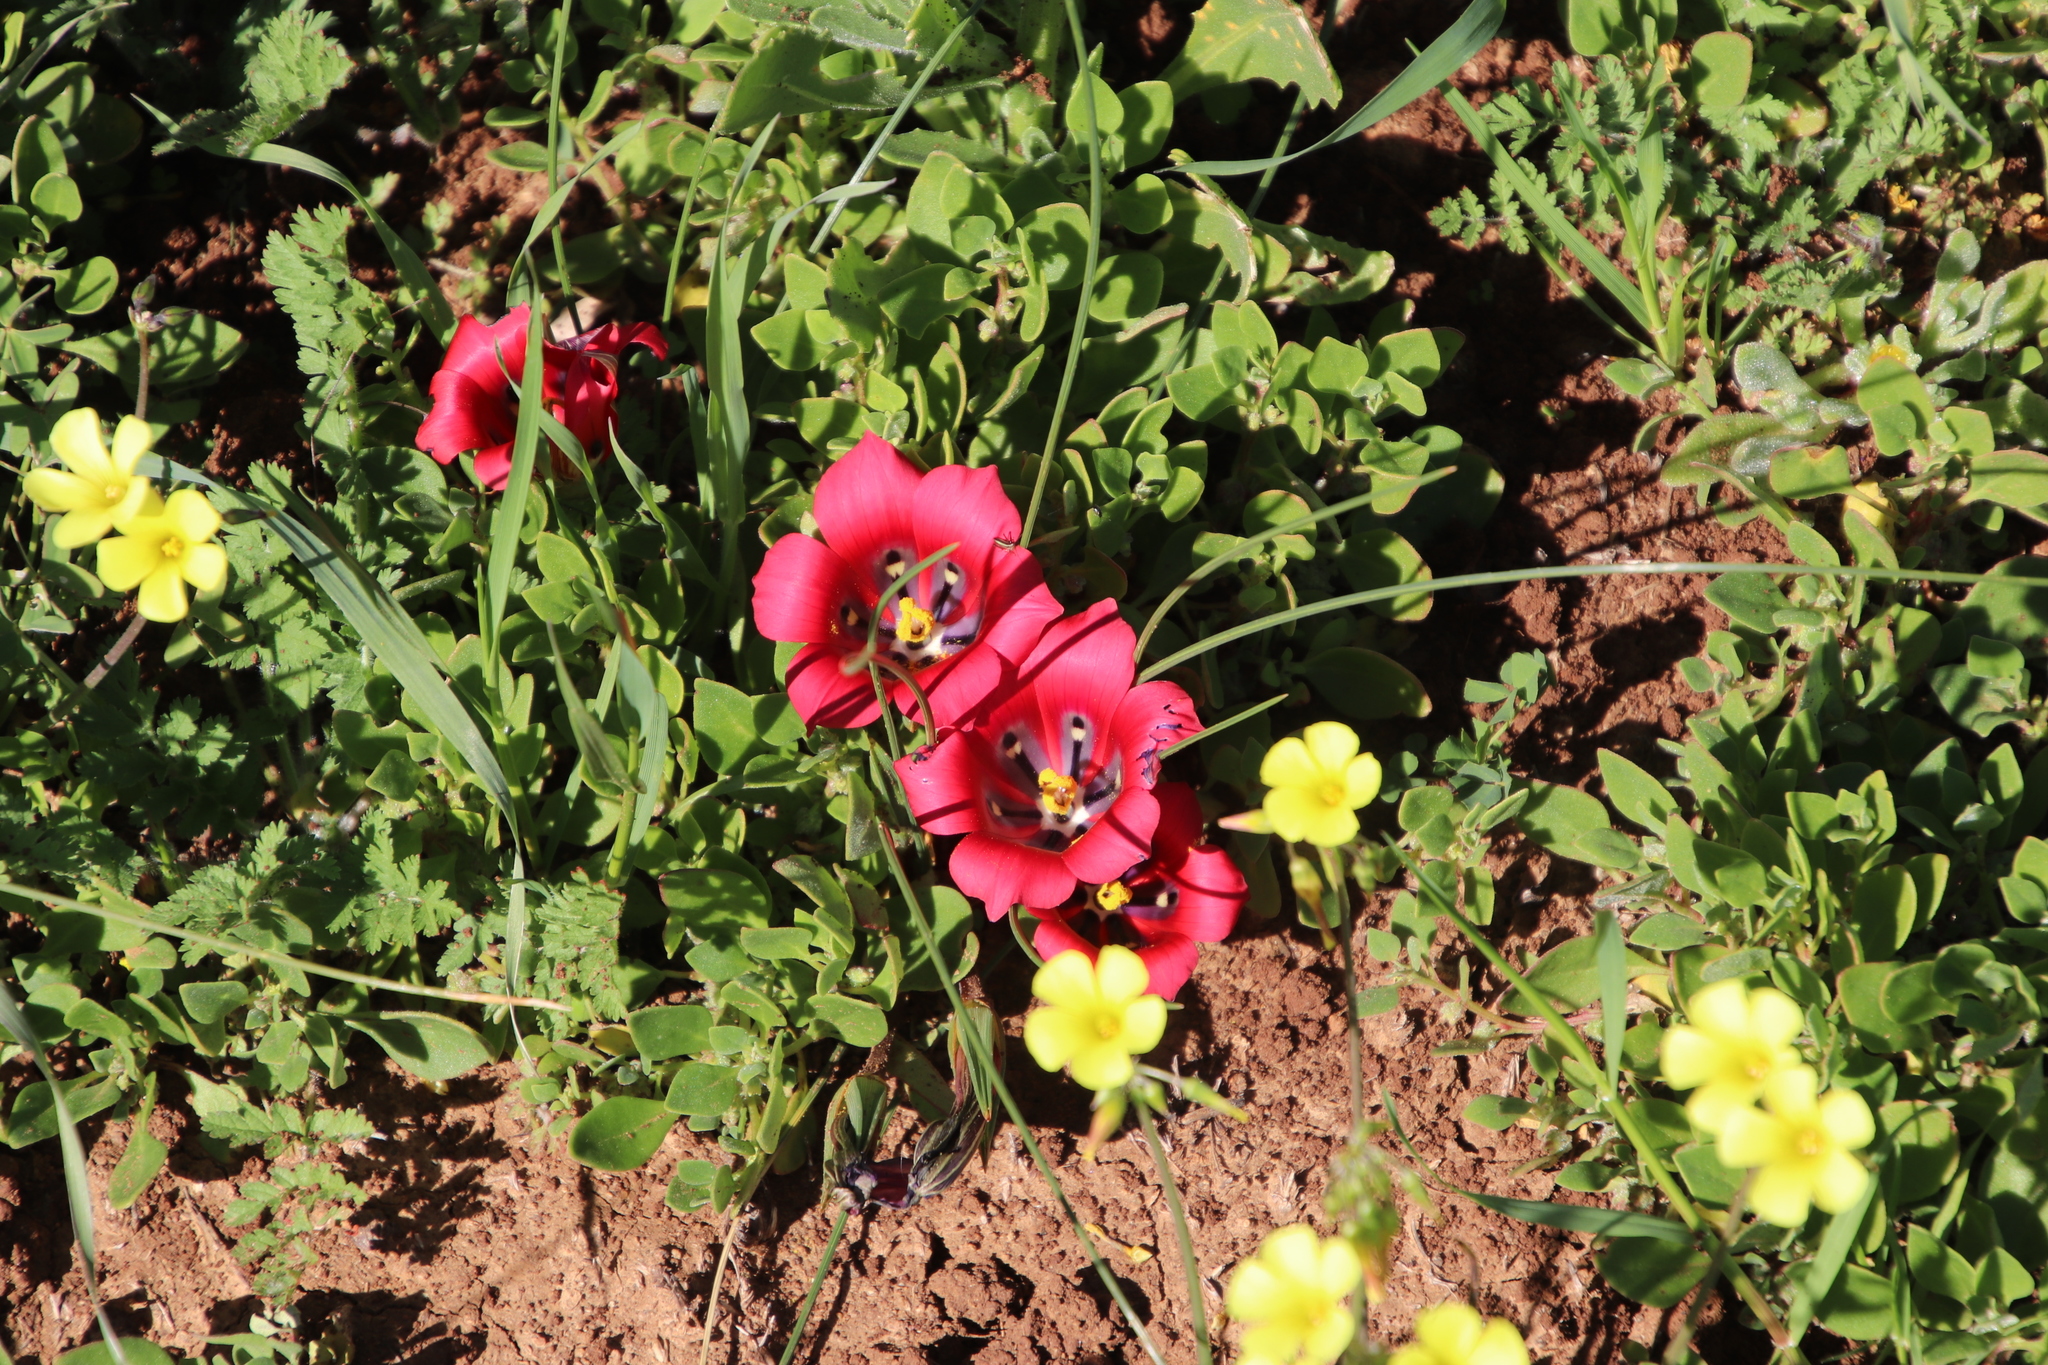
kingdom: Plantae
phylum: Tracheophyta
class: Liliopsida
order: Asparagales
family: Iridaceae
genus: Romulea
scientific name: Romulea monadelpha
